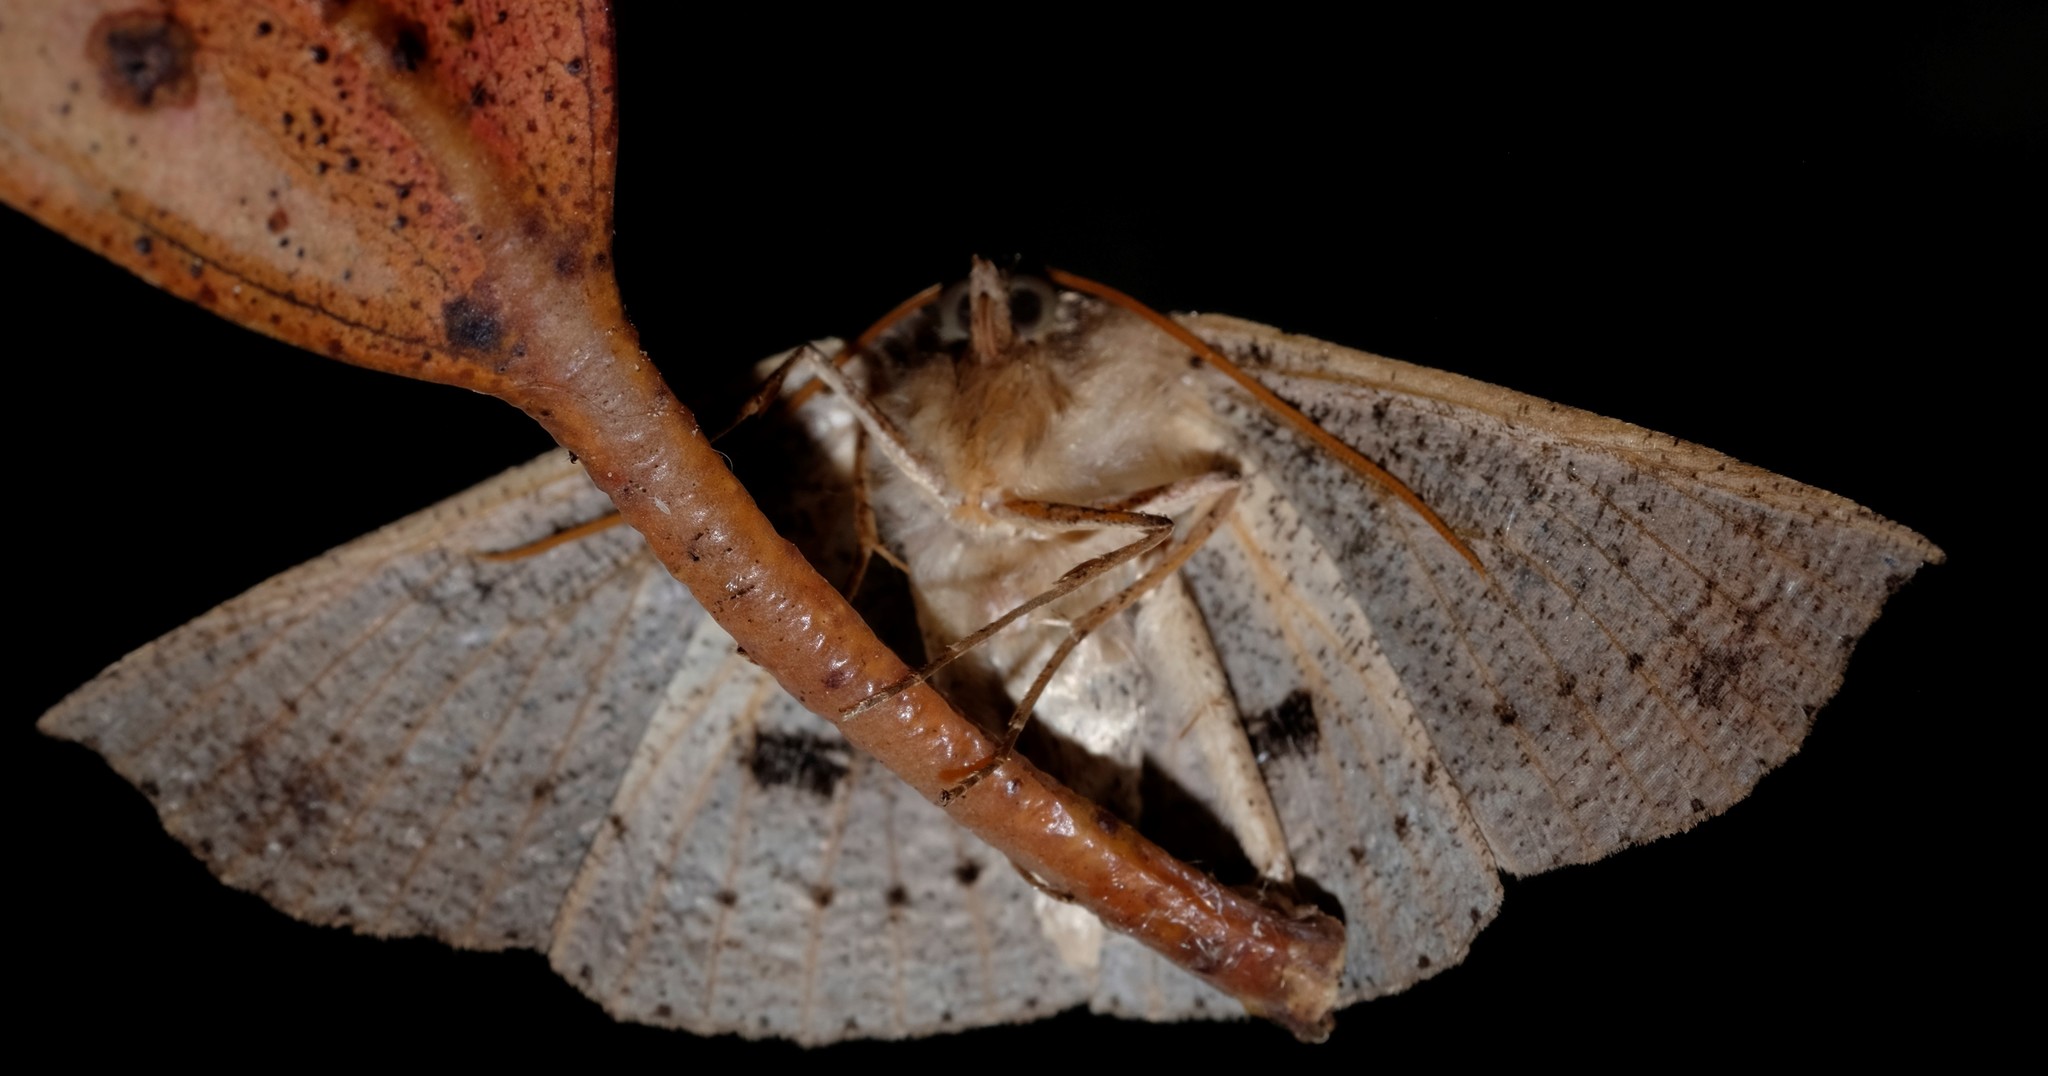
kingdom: Animalia
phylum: Arthropoda
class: Insecta
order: Lepidoptera
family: Geometridae
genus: Idiodes
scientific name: Idiodes siculoides
